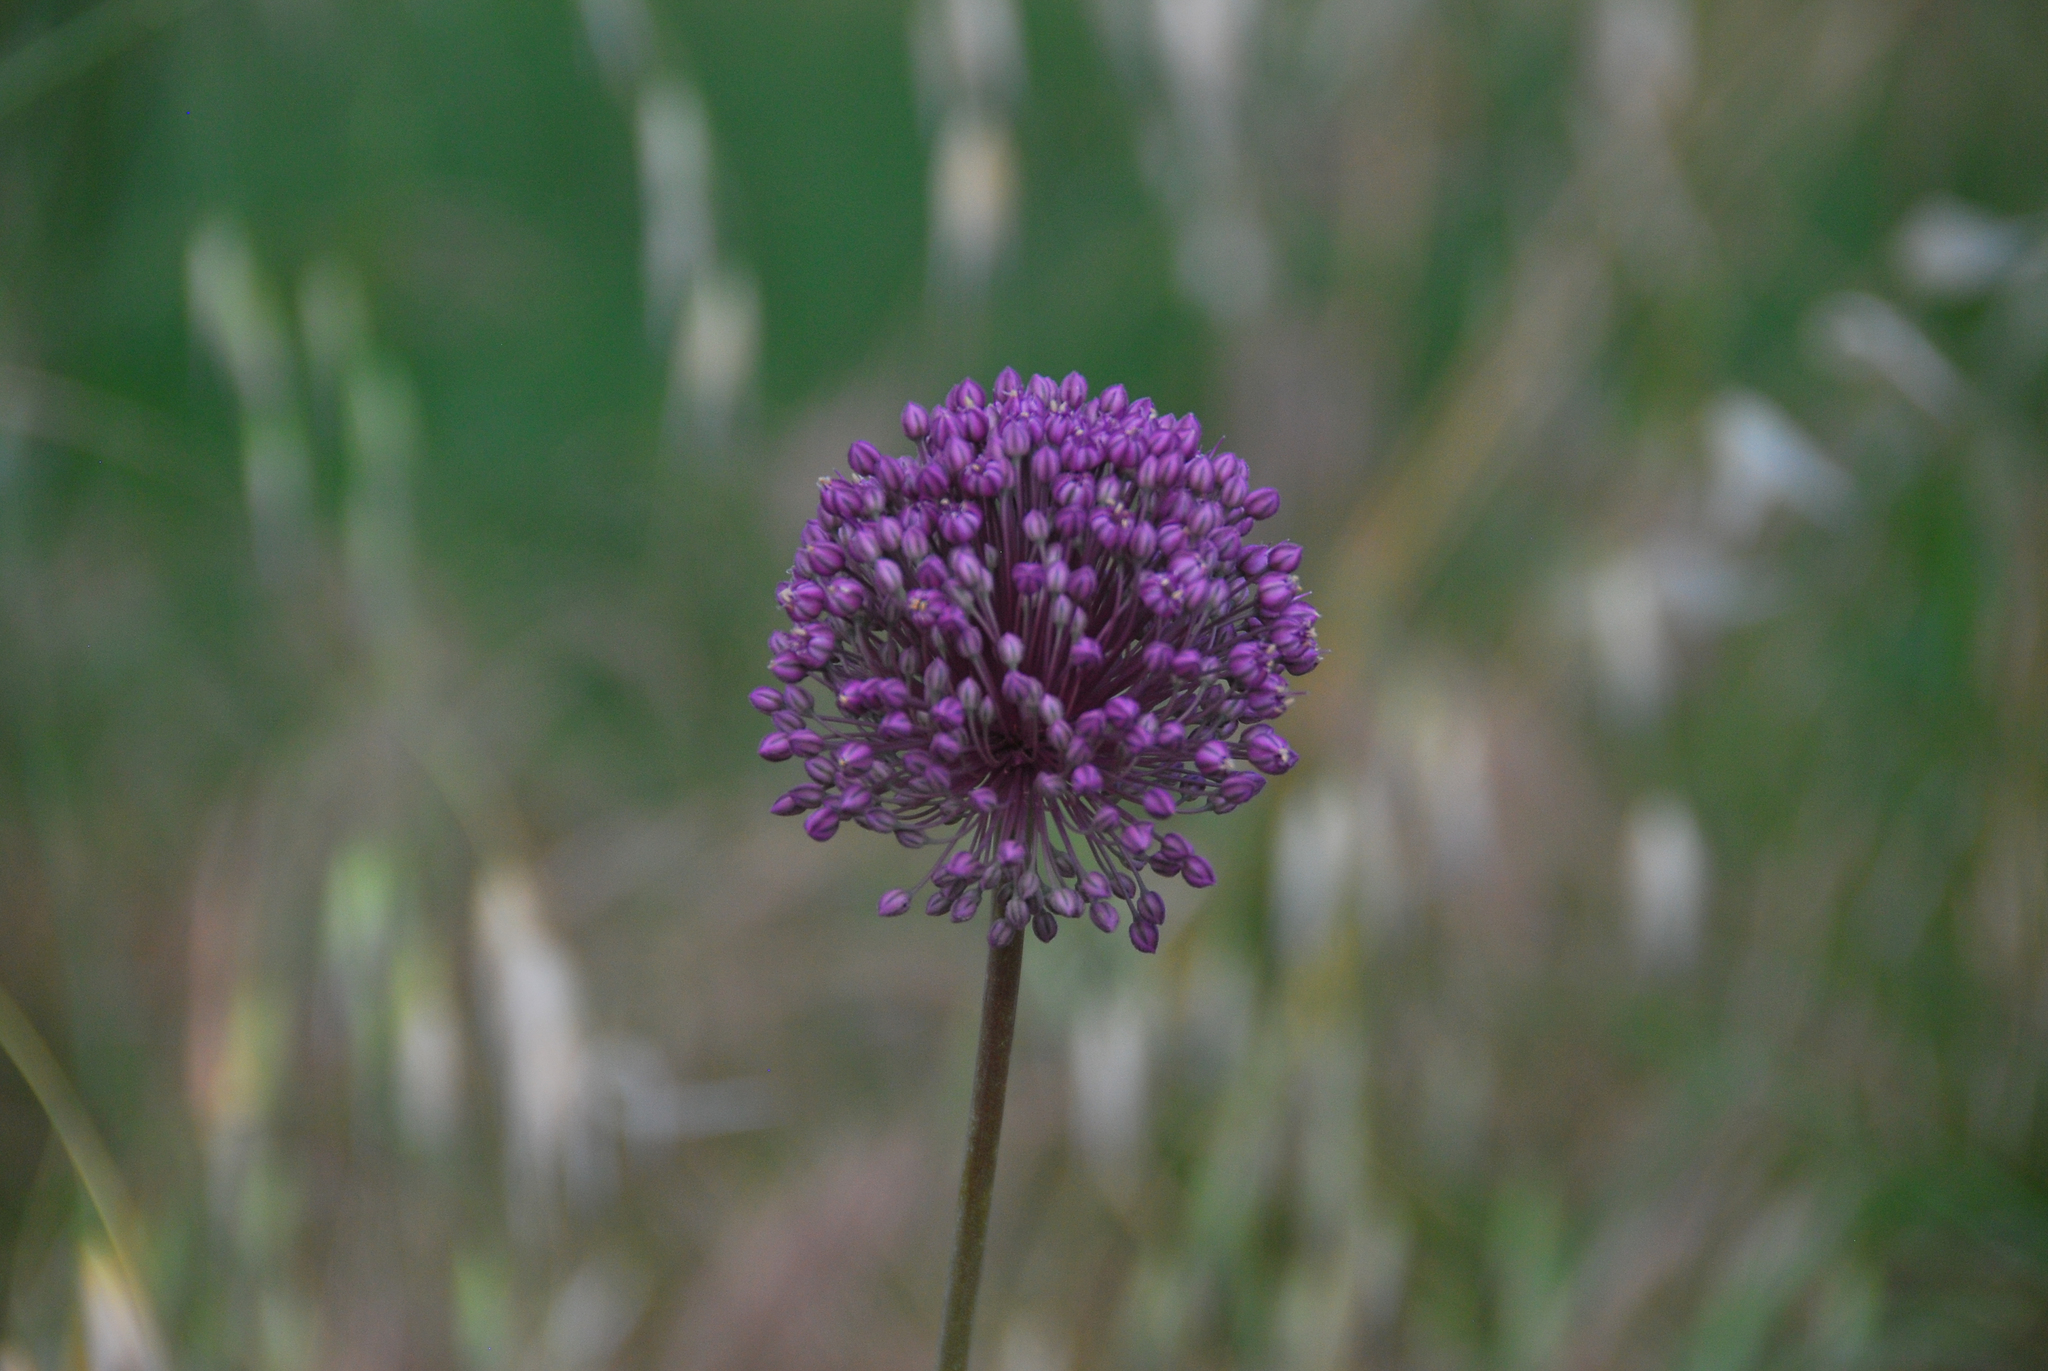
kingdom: Plantae
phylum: Tracheophyta
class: Liliopsida
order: Asparagales
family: Amaryllidaceae
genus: Allium
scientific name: Allium ampeloprasum
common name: Wild leek
